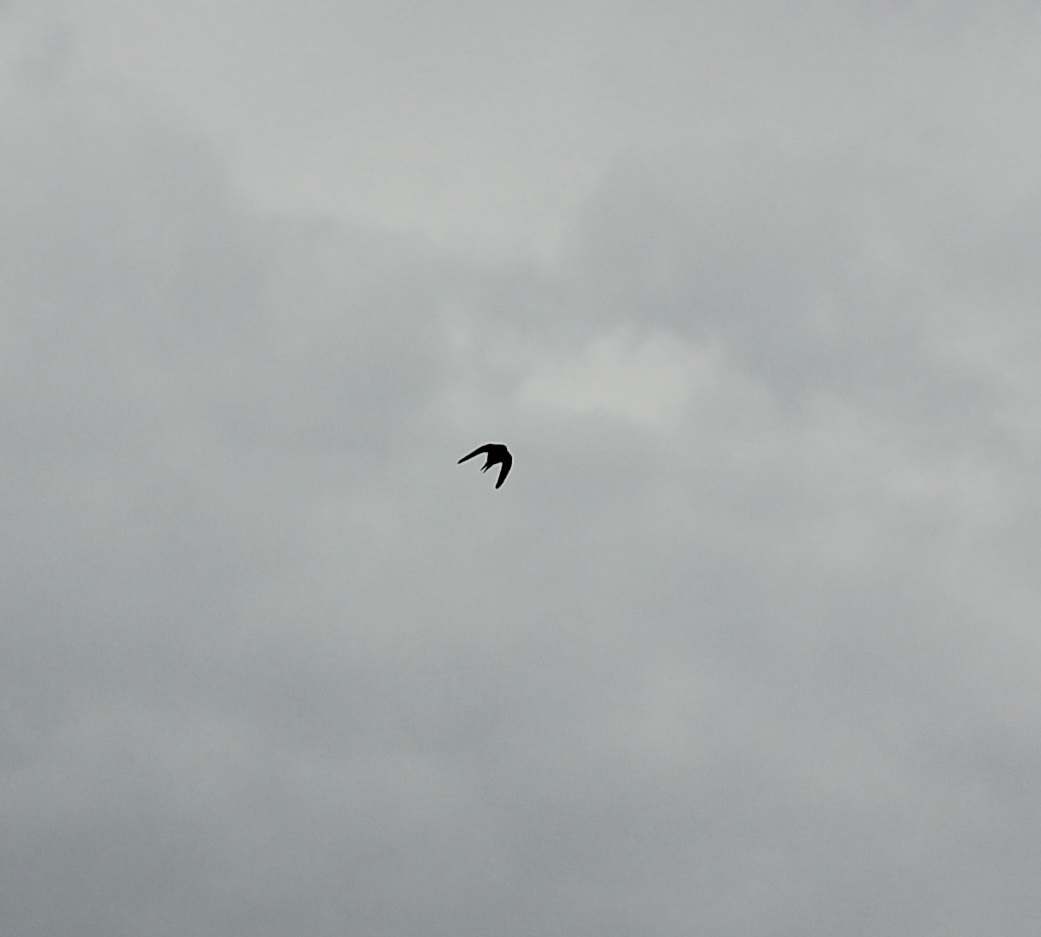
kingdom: Animalia
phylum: Chordata
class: Aves
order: Passeriformes
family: Hirundinidae
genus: Hirundo
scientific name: Hirundo rustica
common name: Barn swallow
